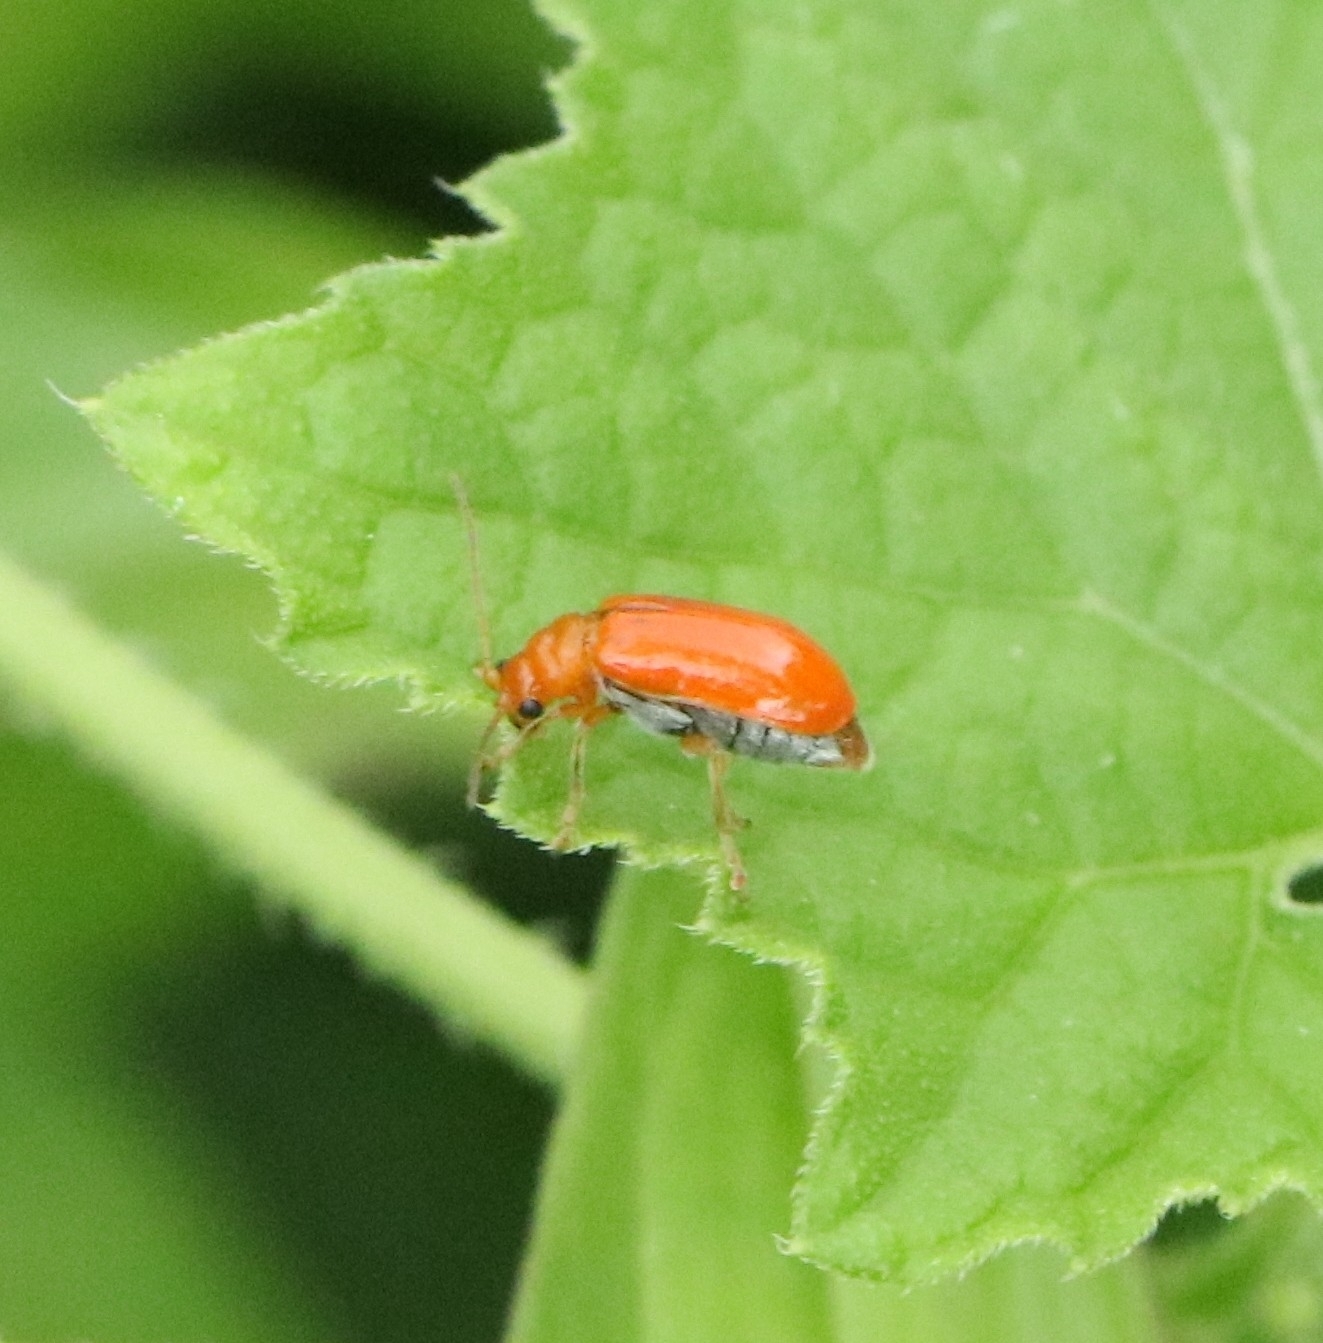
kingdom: Animalia
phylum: Arthropoda
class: Insecta
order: Coleoptera
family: Chrysomelidae
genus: Aulacophora
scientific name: Aulacophora indica
